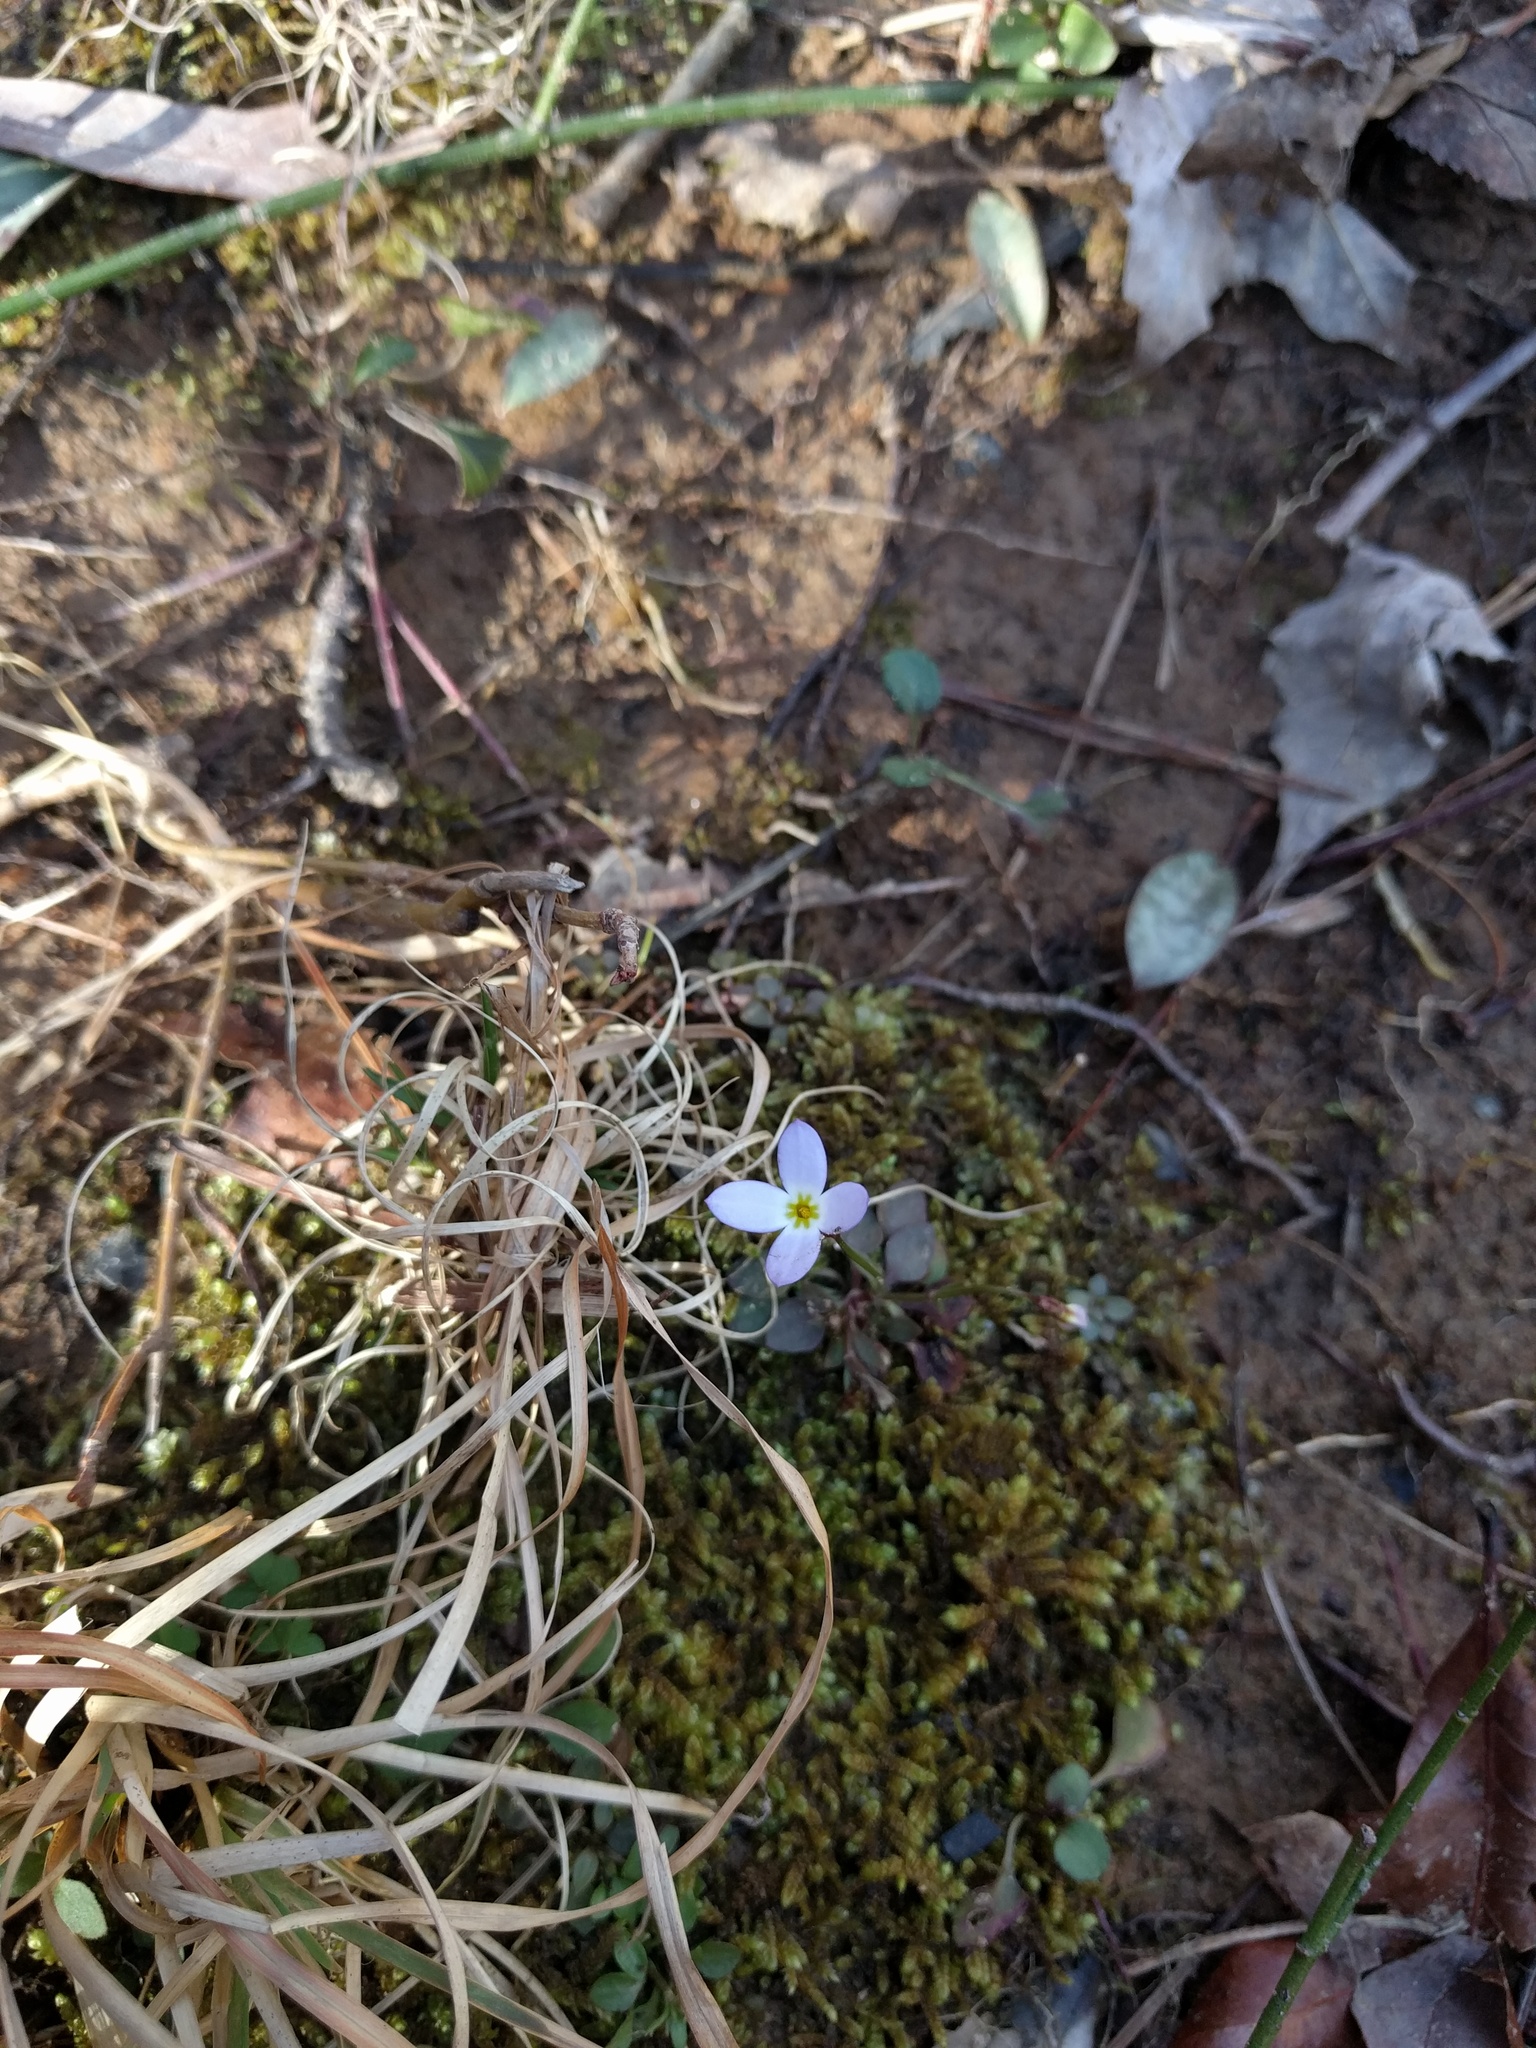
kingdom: Plantae
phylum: Tracheophyta
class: Magnoliopsida
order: Gentianales
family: Rubiaceae
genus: Houstonia
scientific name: Houstonia caerulea
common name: Bluets
